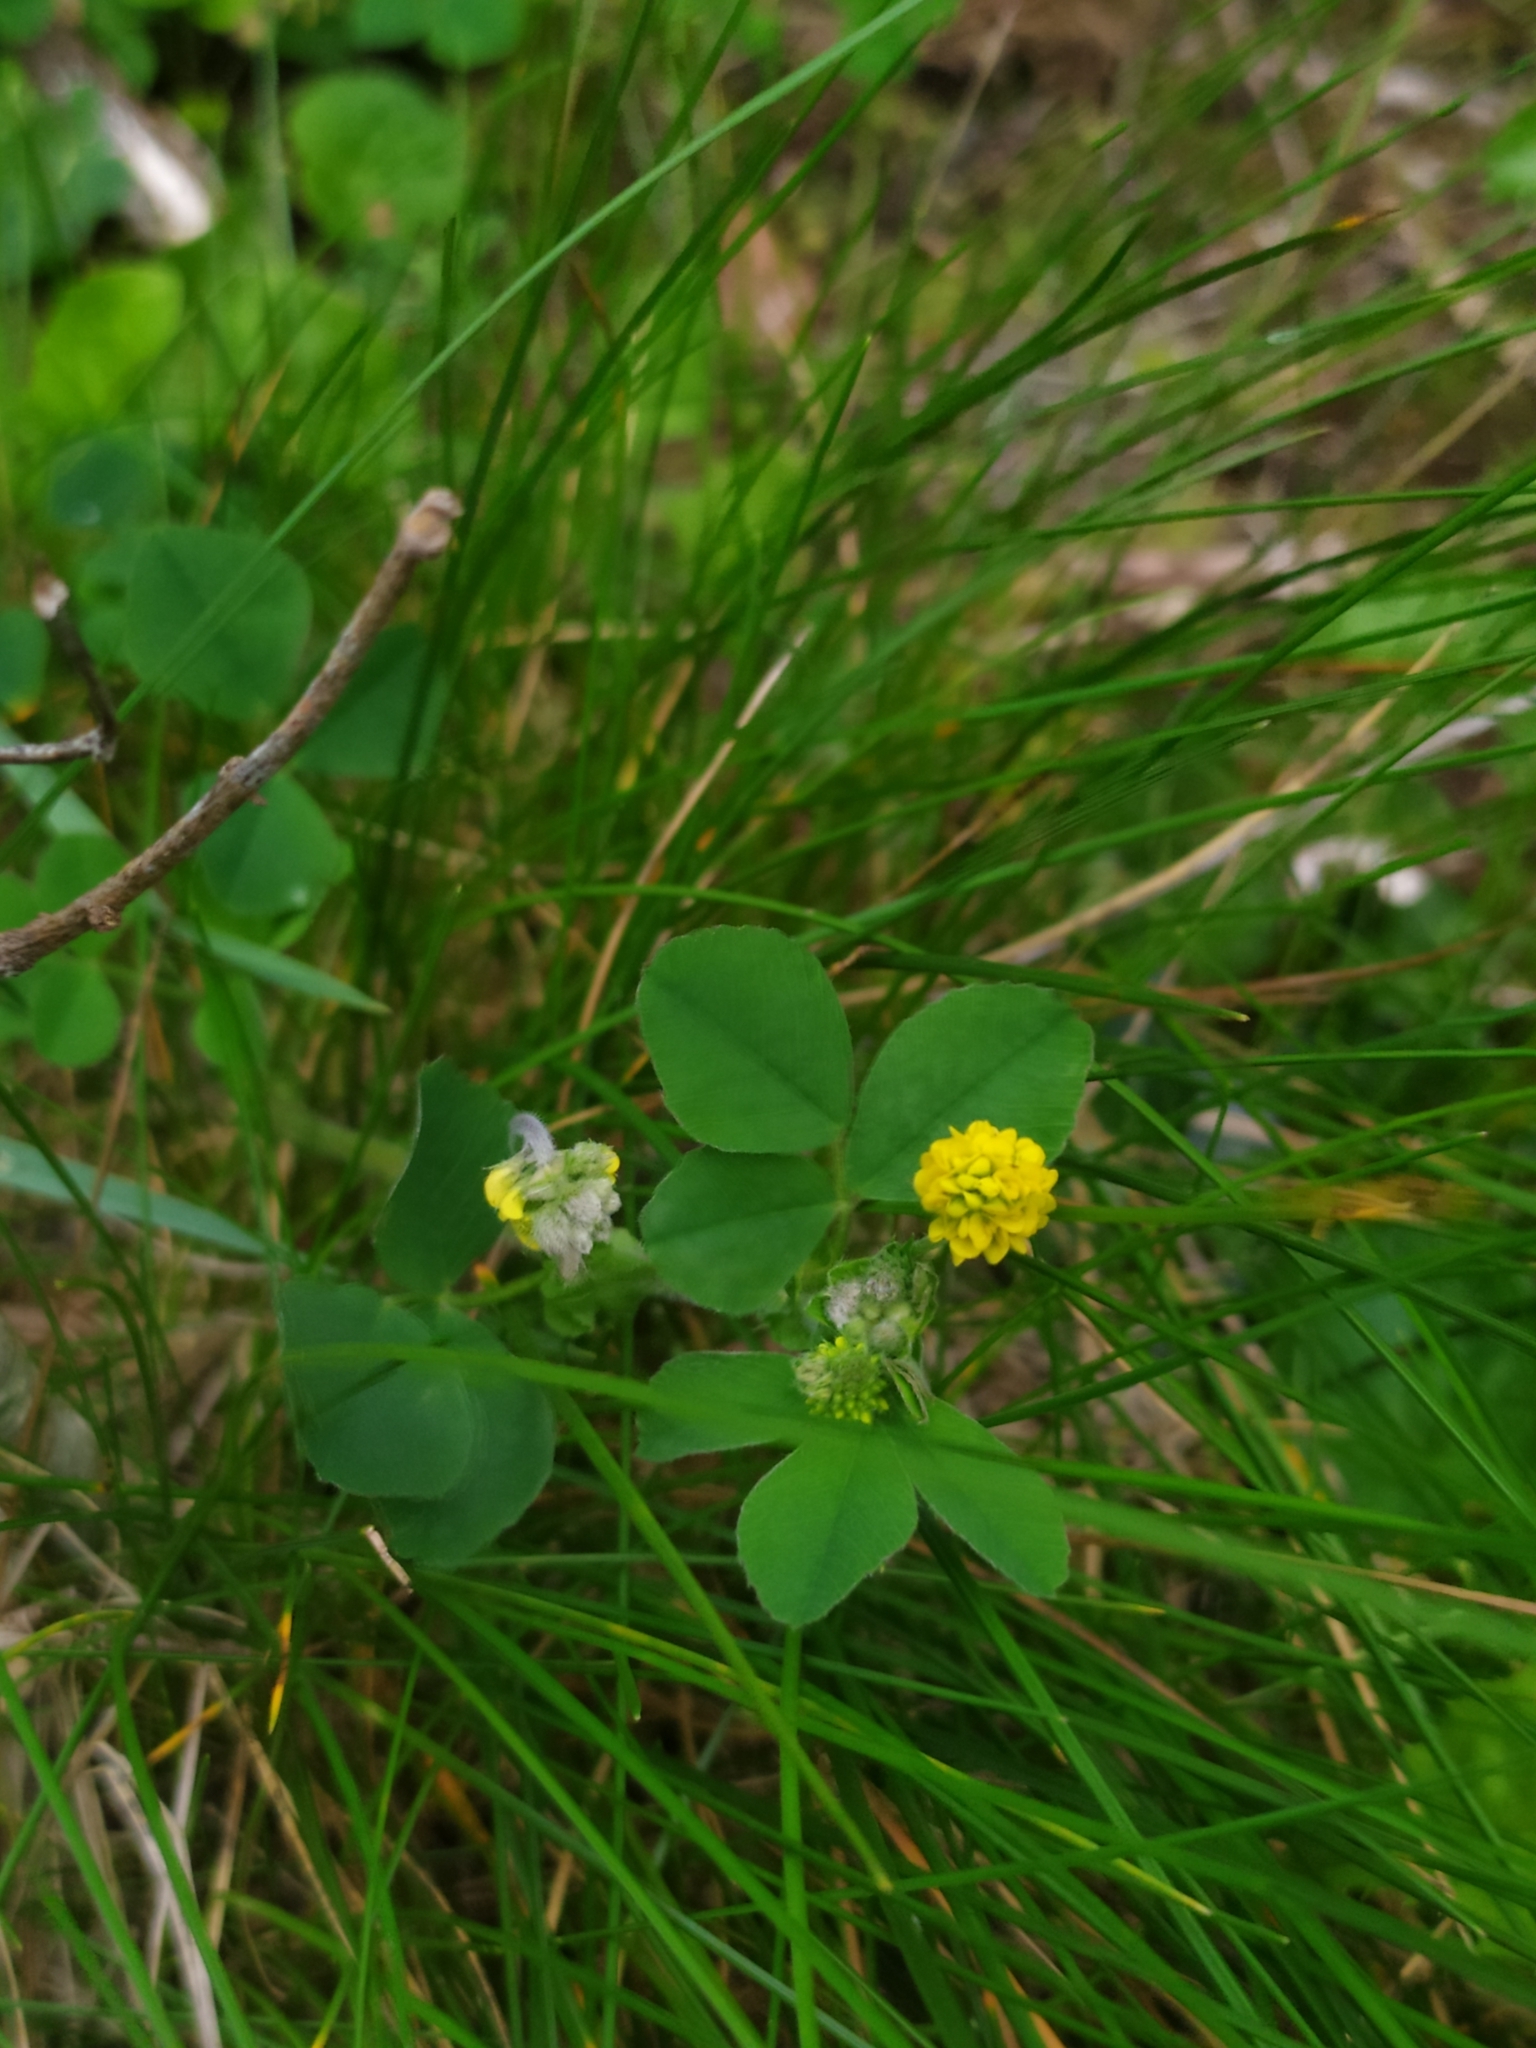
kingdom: Plantae
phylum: Tracheophyta
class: Magnoliopsida
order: Fabales
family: Fabaceae
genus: Medicago
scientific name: Medicago lupulina
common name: Black medick
